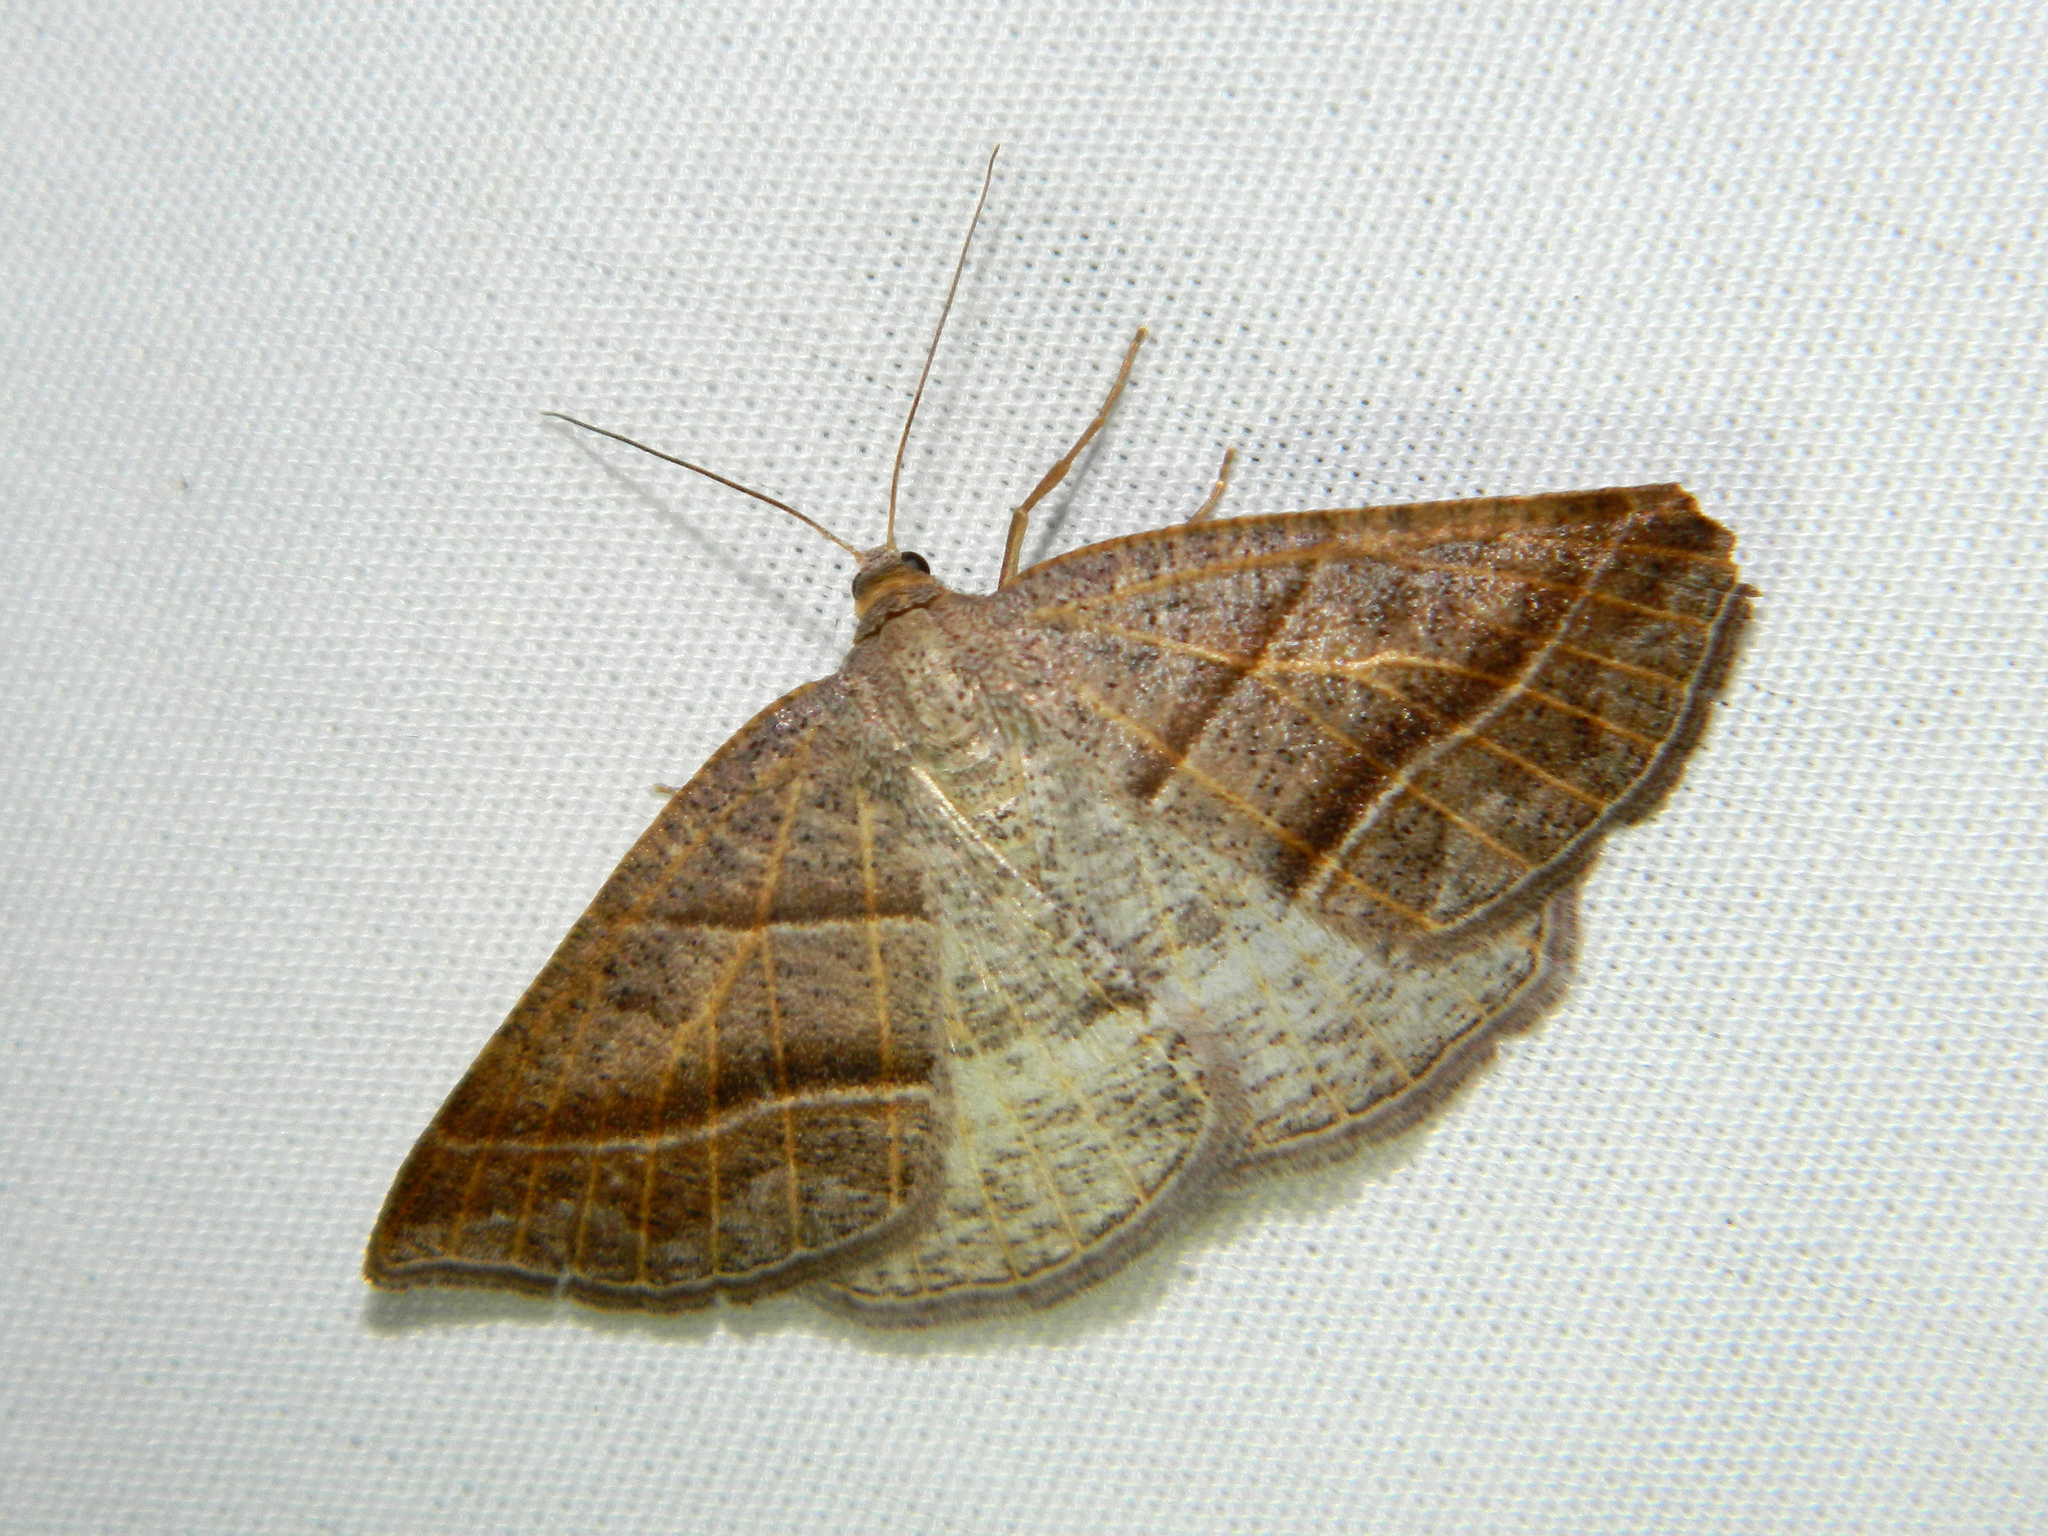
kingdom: Animalia
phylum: Arthropoda
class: Insecta
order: Lepidoptera
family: Pterophoridae
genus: Pterophorus
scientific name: Pterophorus Petrophora subaequaria
